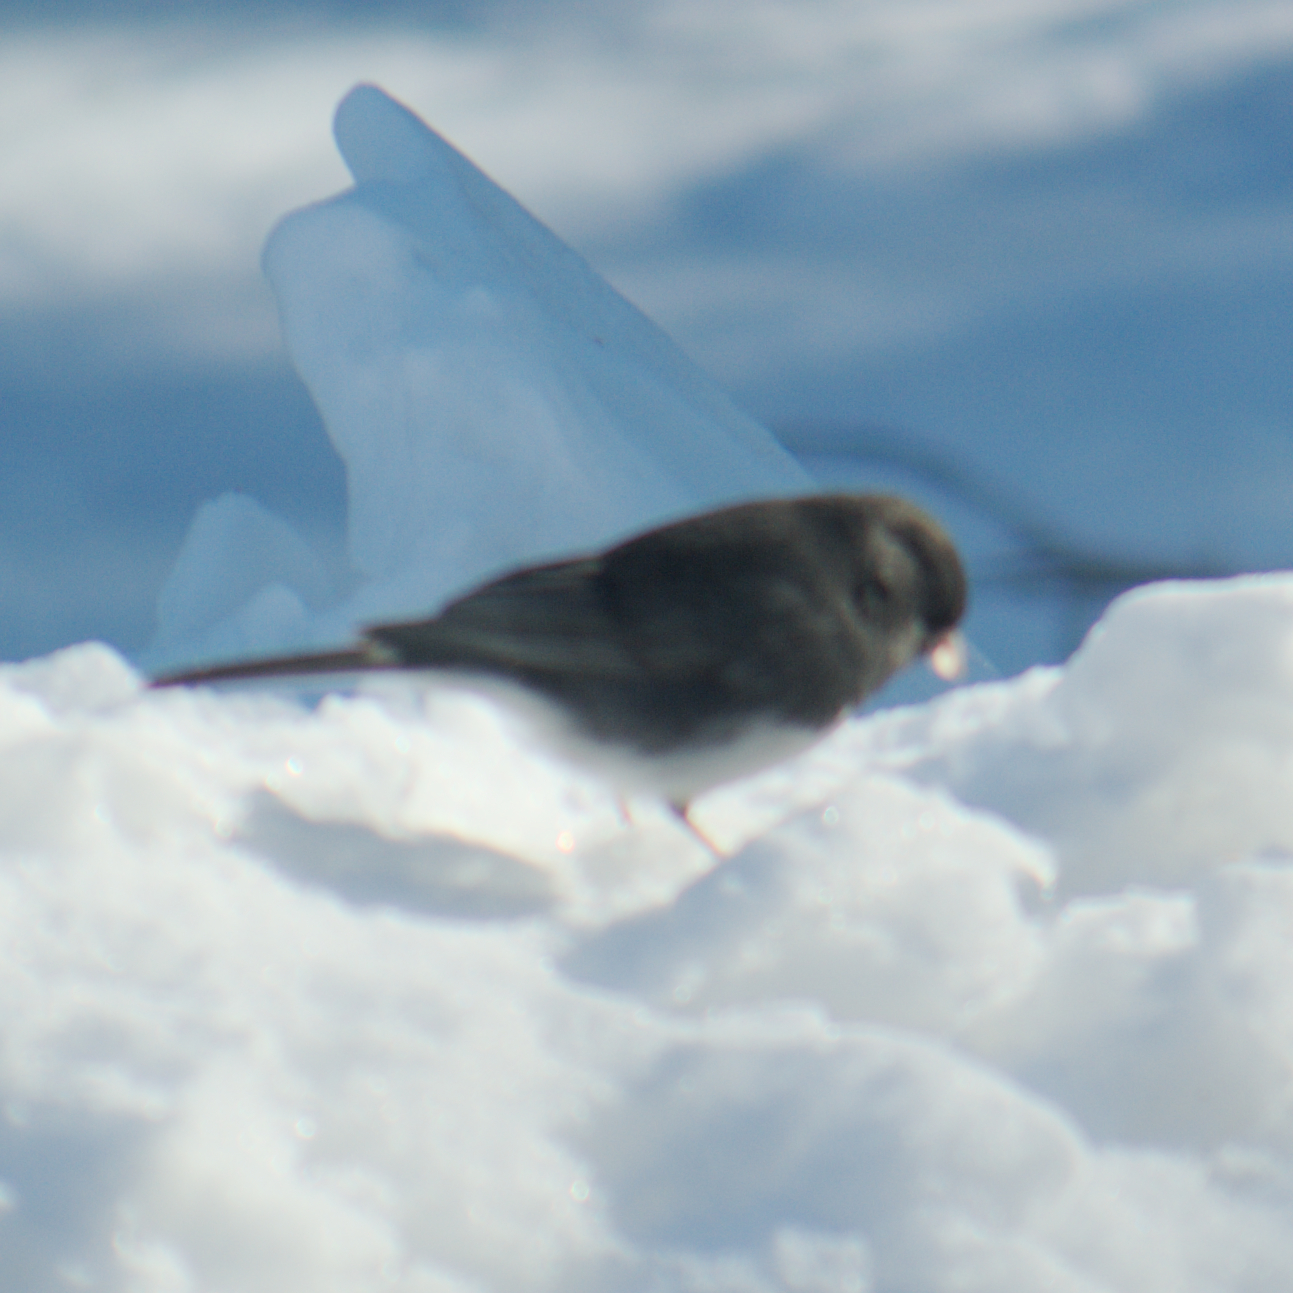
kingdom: Animalia
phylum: Chordata
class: Aves
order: Passeriformes
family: Passerellidae
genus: Junco
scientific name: Junco hyemalis
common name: Dark-eyed junco
